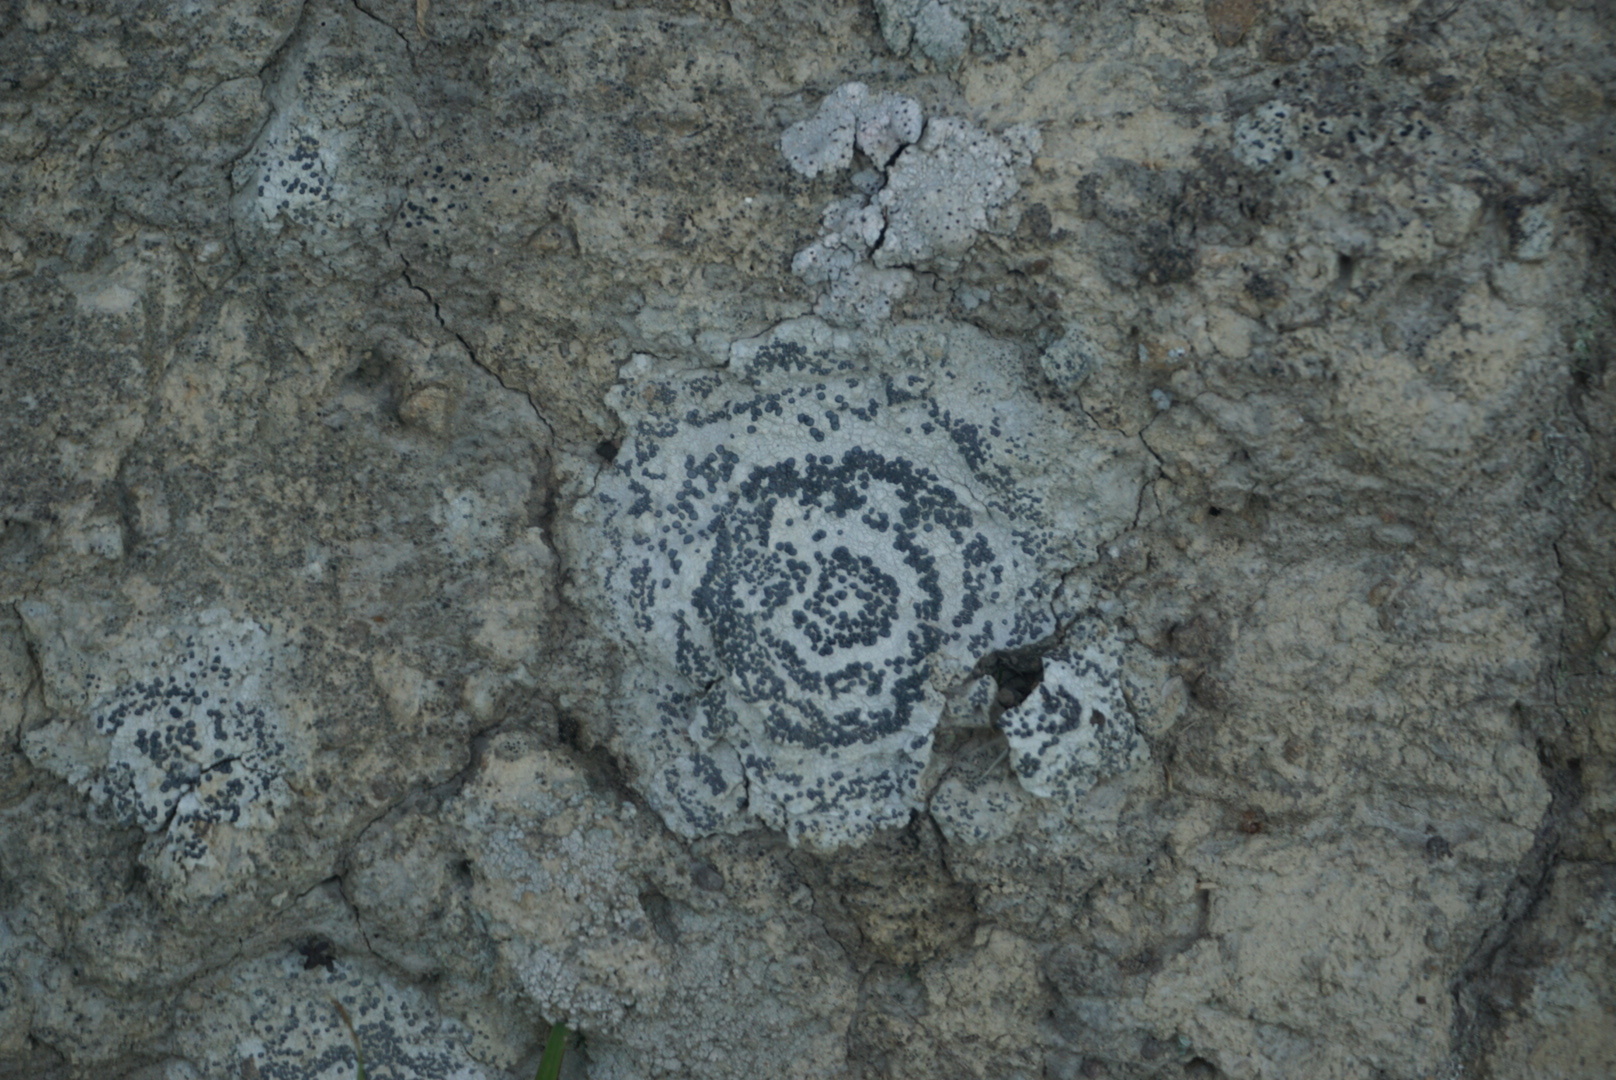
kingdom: Fungi
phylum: Ascomycota
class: Lecanoromycetes
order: Lecideales
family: Lecideaceae
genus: Porpidia
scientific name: Porpidia crustulata
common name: Concentric boulder lichen
